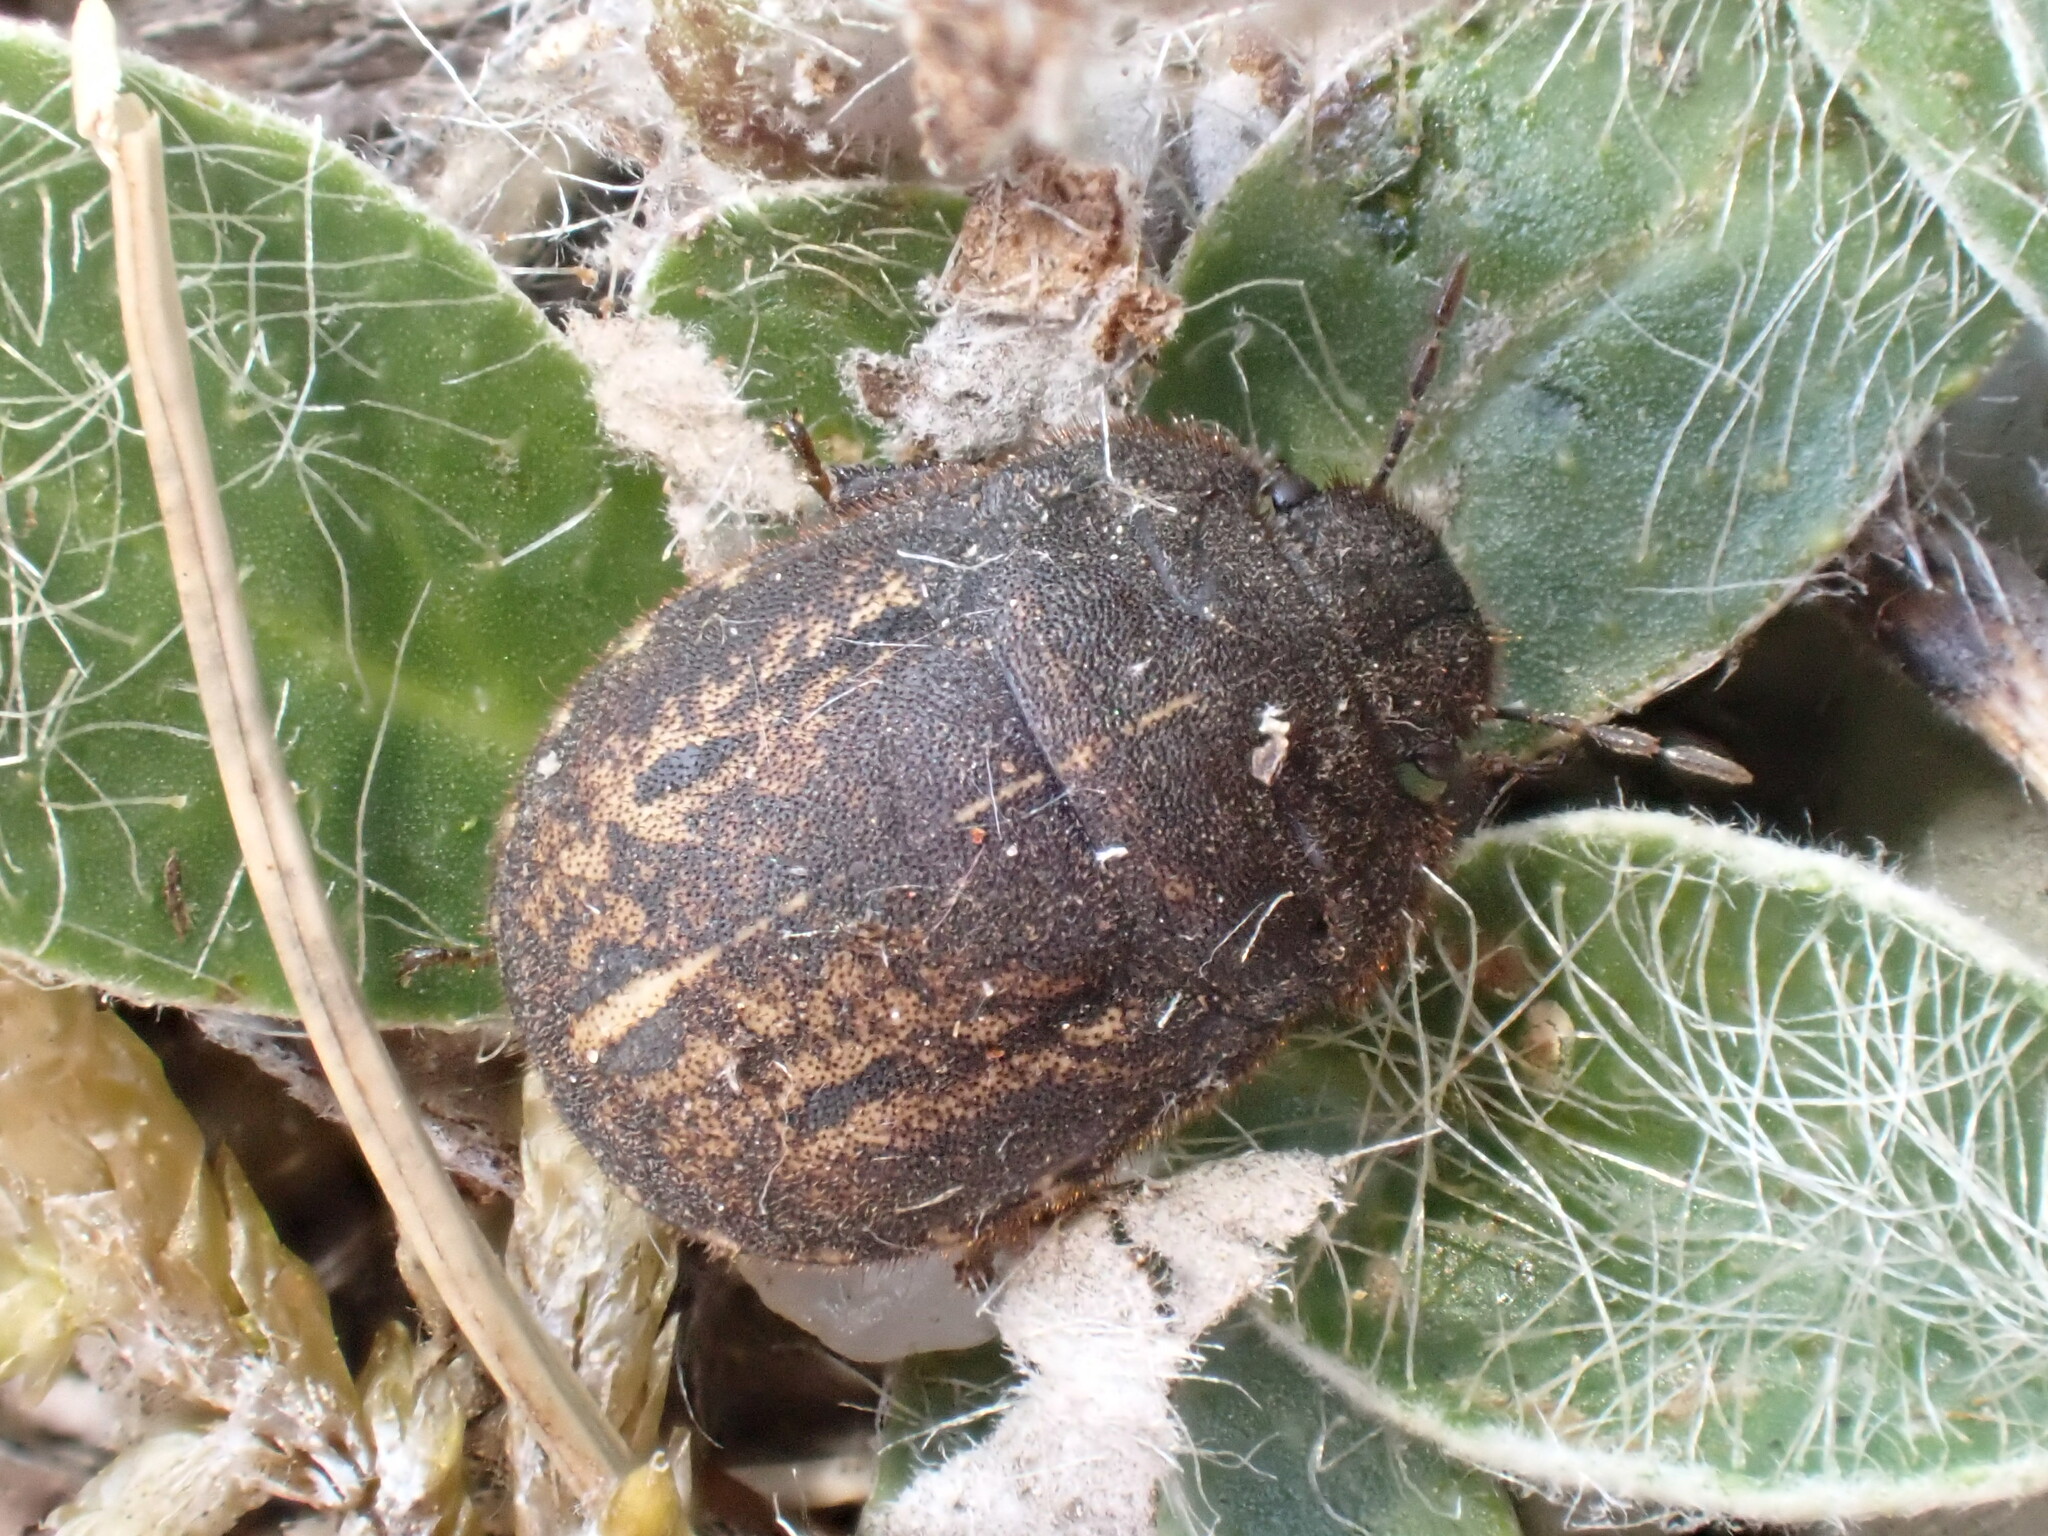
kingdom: Animalia
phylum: Arthropoda
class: Insecta
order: Hemiptera
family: Scutelleridae
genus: Odontoscelis
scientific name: Odontoscelis fuliginosa
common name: Greater streaked shieldbug
